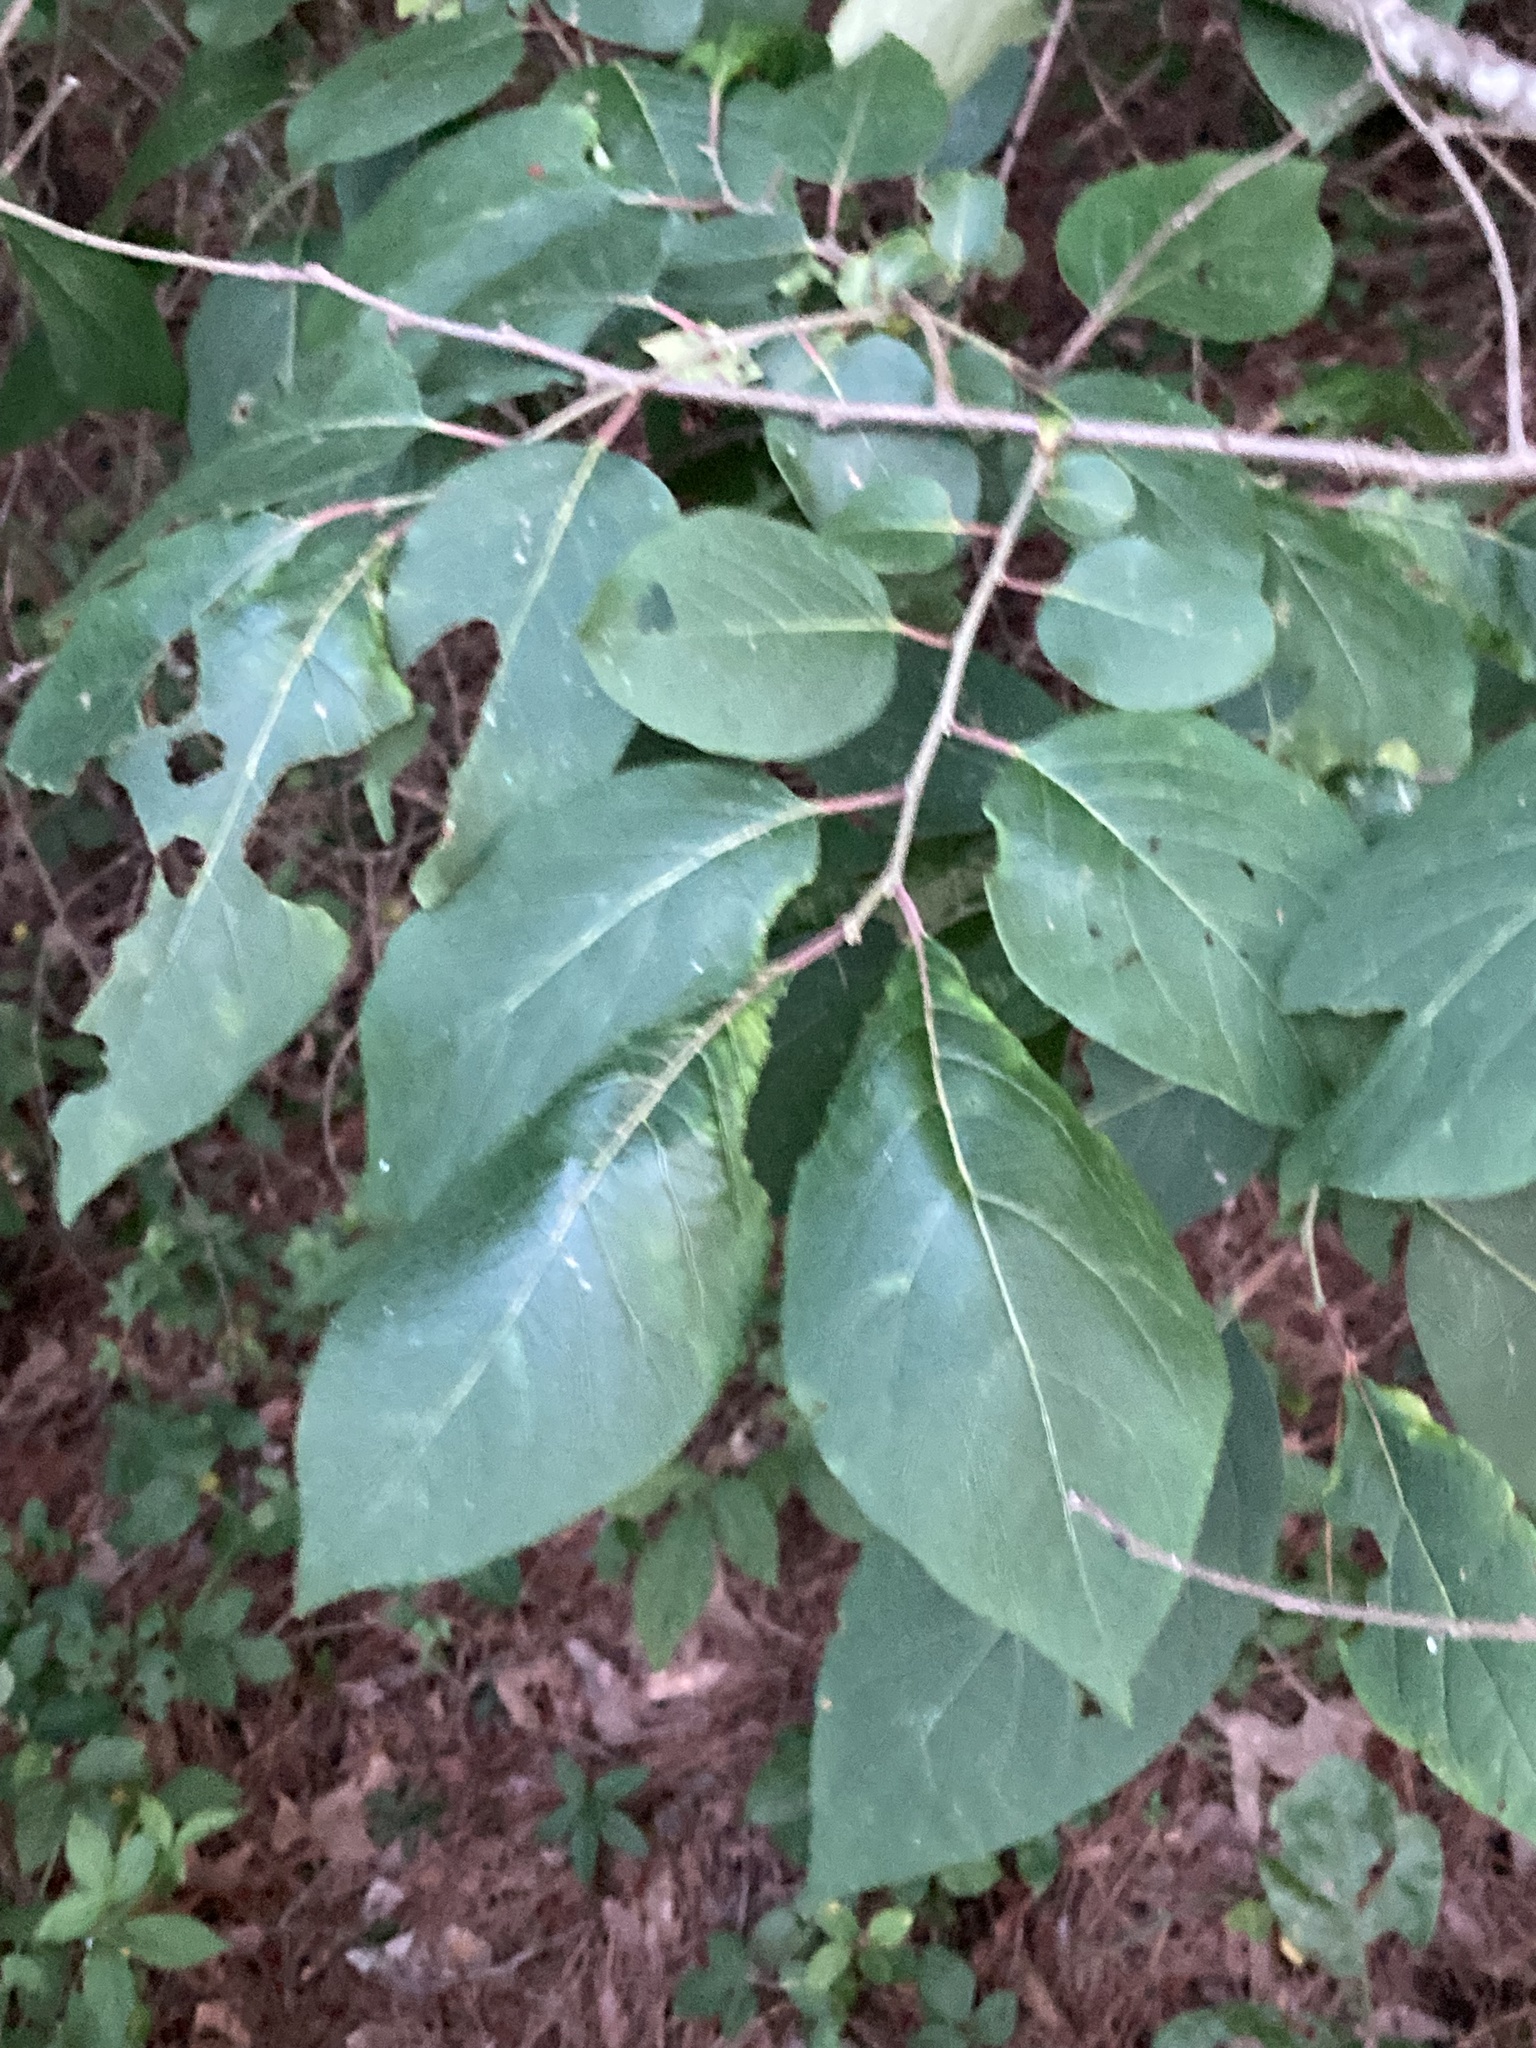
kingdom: Plantae
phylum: Tracheophyta
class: Magnoliopsida
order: Ericales
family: Ebenaceae
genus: Diospyros
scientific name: Diospyros virginiana
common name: Persimmon
